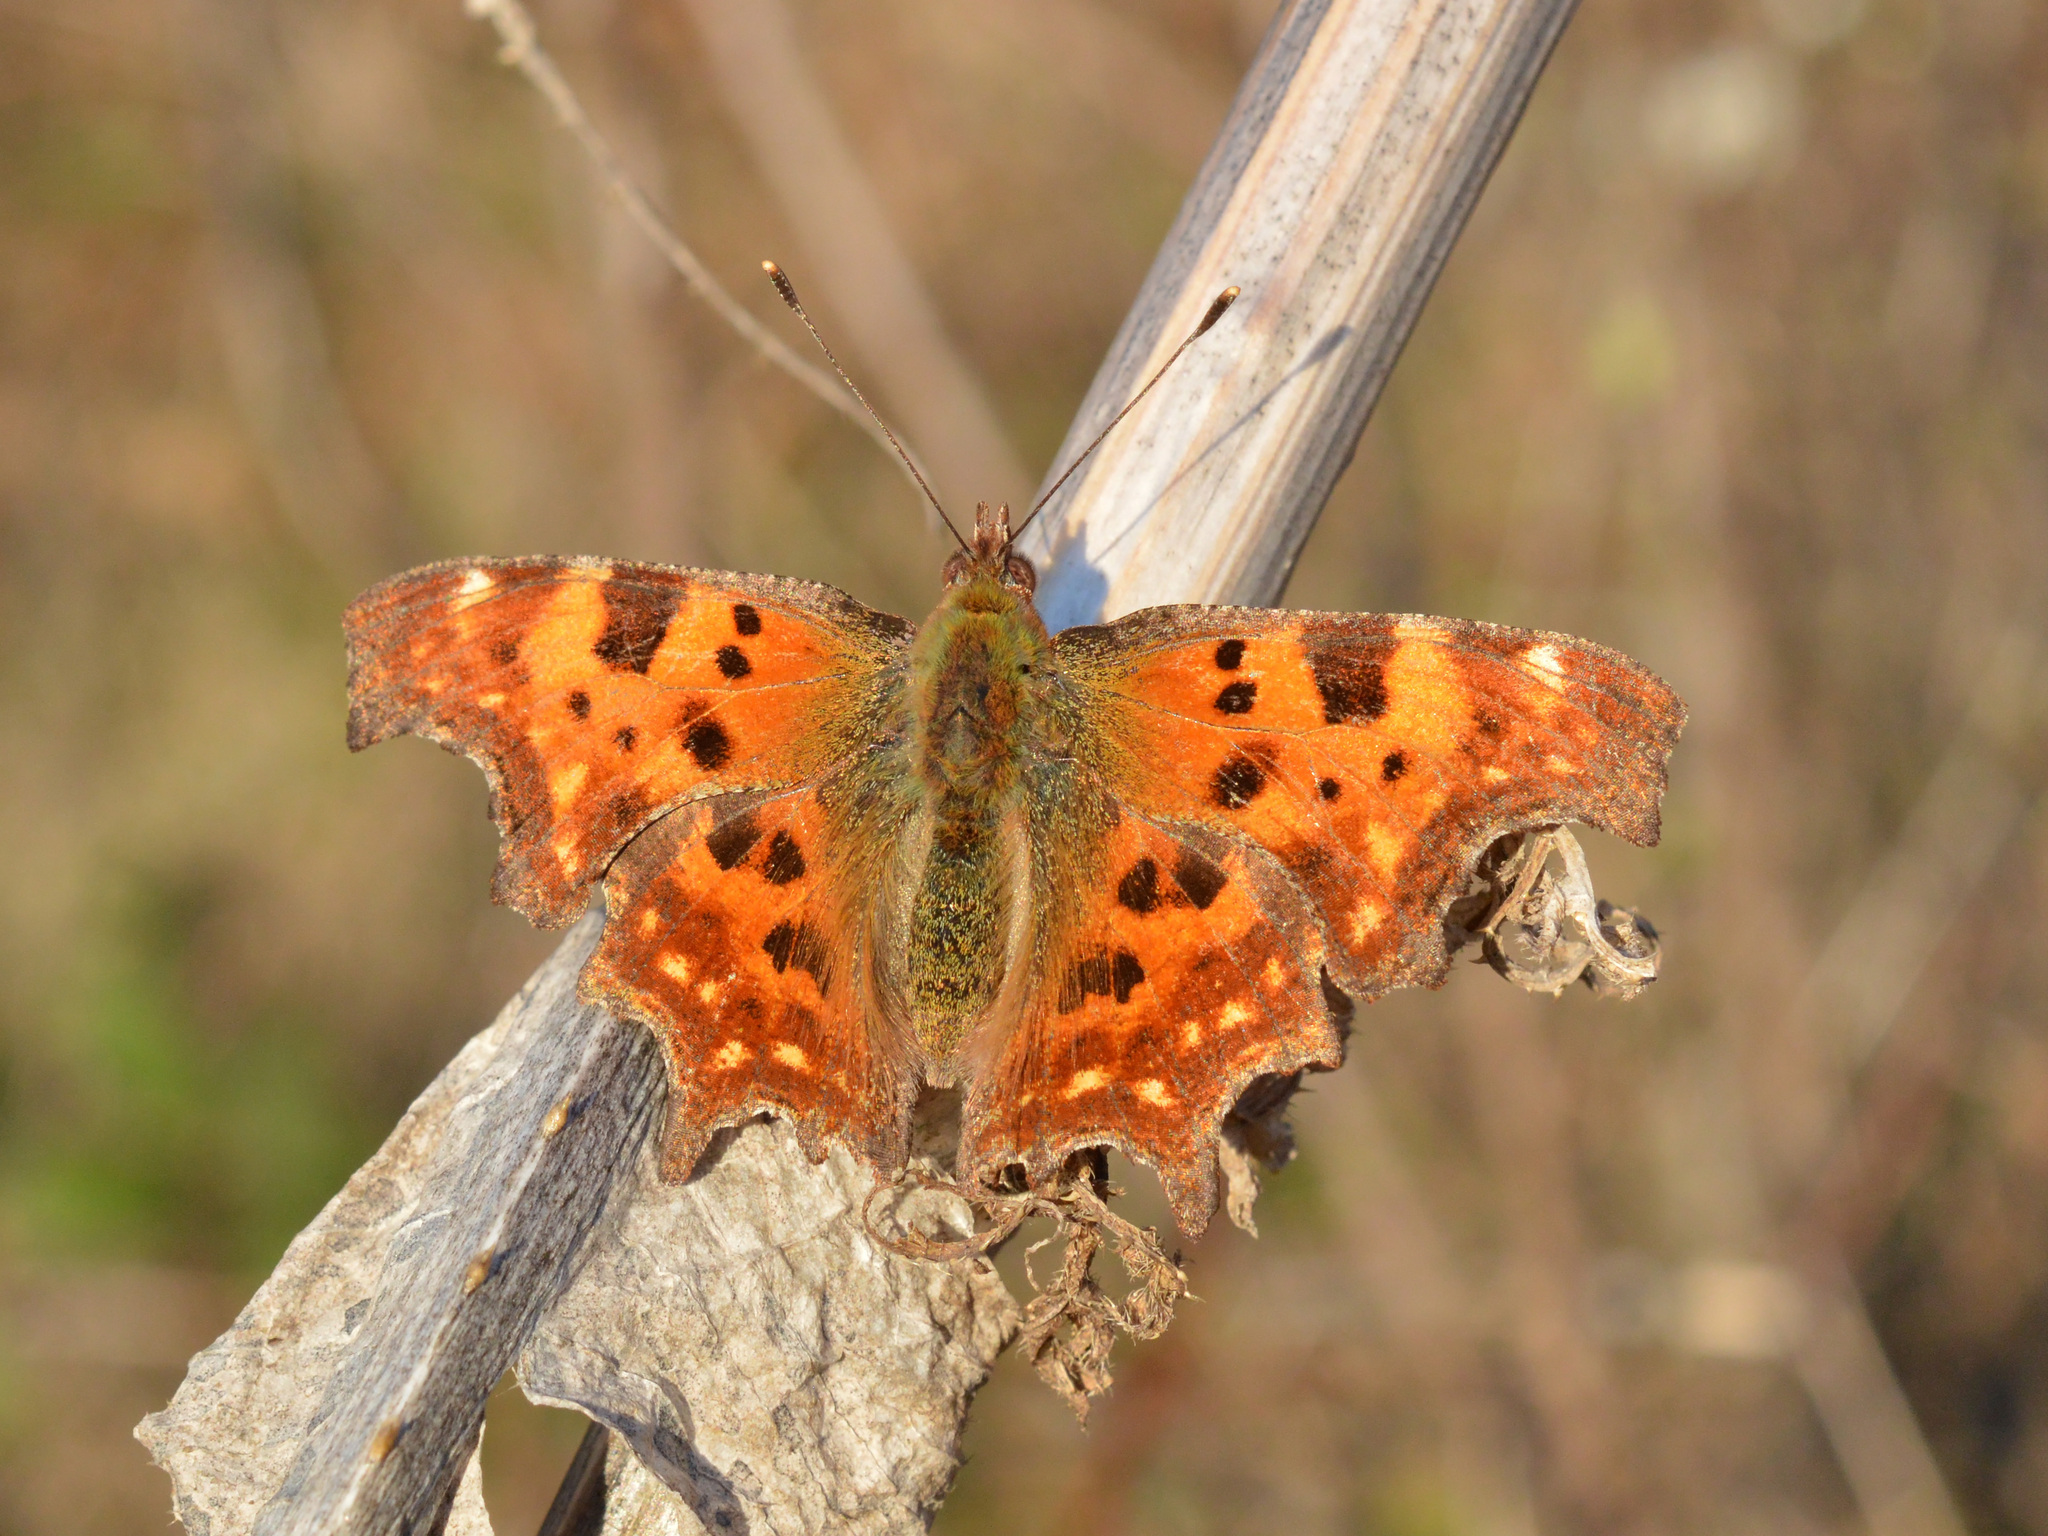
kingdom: Animalia
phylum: Arthropoda
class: Insecta
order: Lepidoptera
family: Nymphalidae
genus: Polygonia
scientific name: Polygonia c-album
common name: Comma
